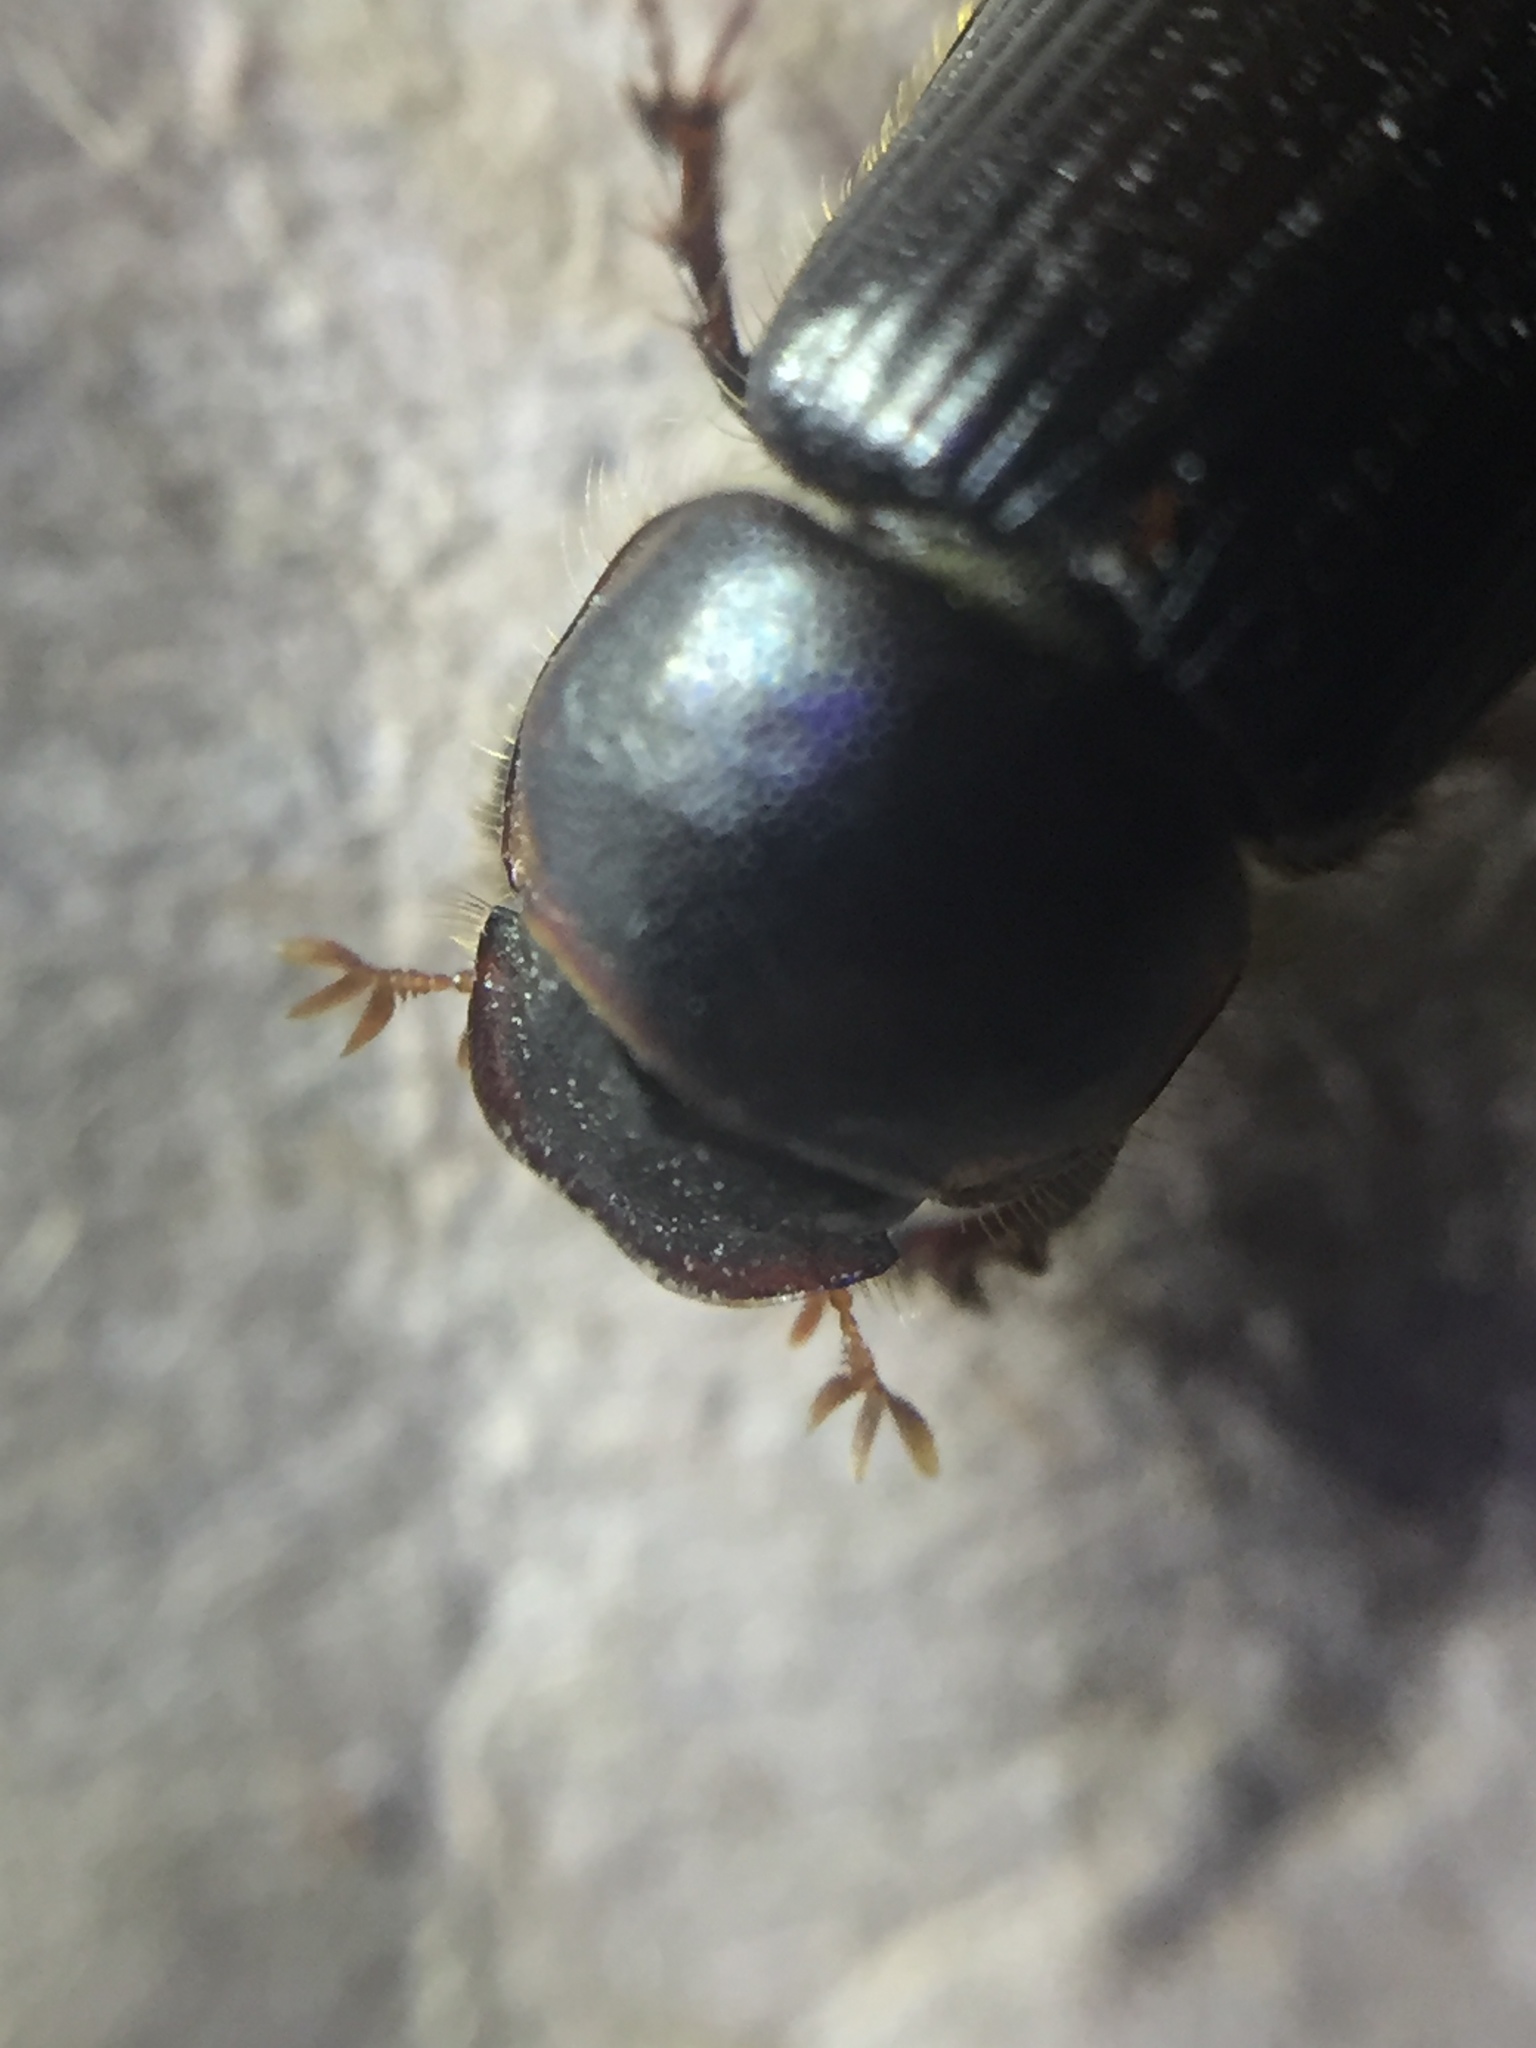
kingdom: Animalia
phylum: Arthropoda
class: Insecta
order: Coleoptera
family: Scarabaeidae
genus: Acrossidius
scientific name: Acrossidius tasmaniae
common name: Black-headed pasture cockchafer
